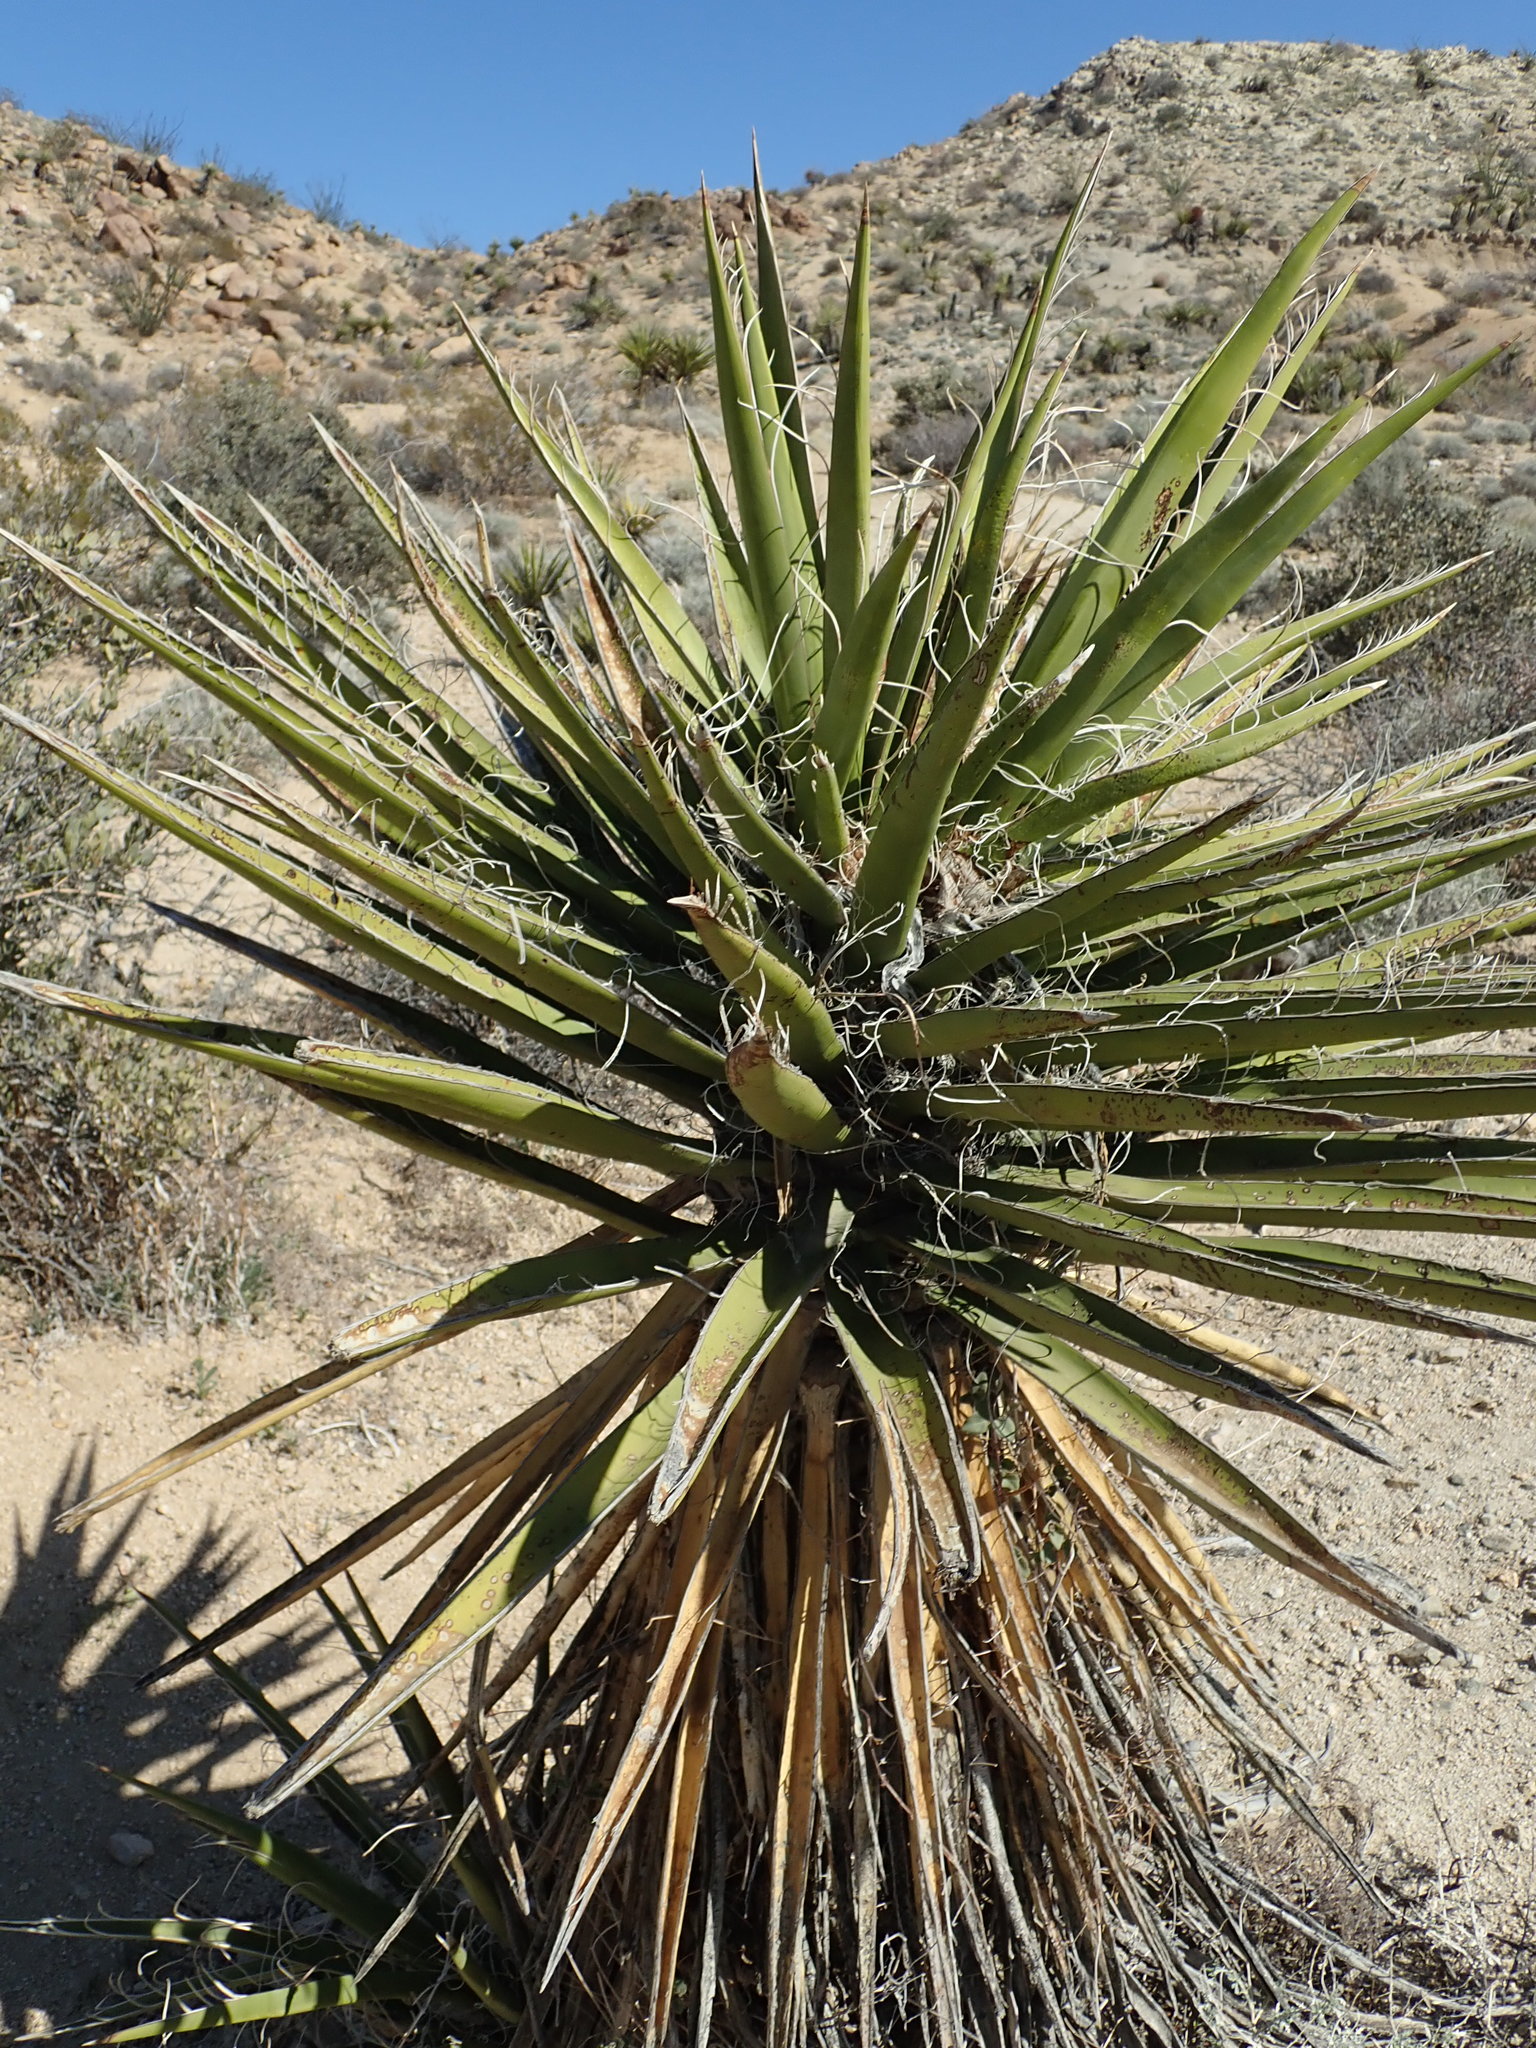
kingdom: Plantae
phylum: Tracheophyta
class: Liliopsida
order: Asparagales
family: Asparagaceae
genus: Yucca
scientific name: Yucca schidigera
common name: Mojave yucca
